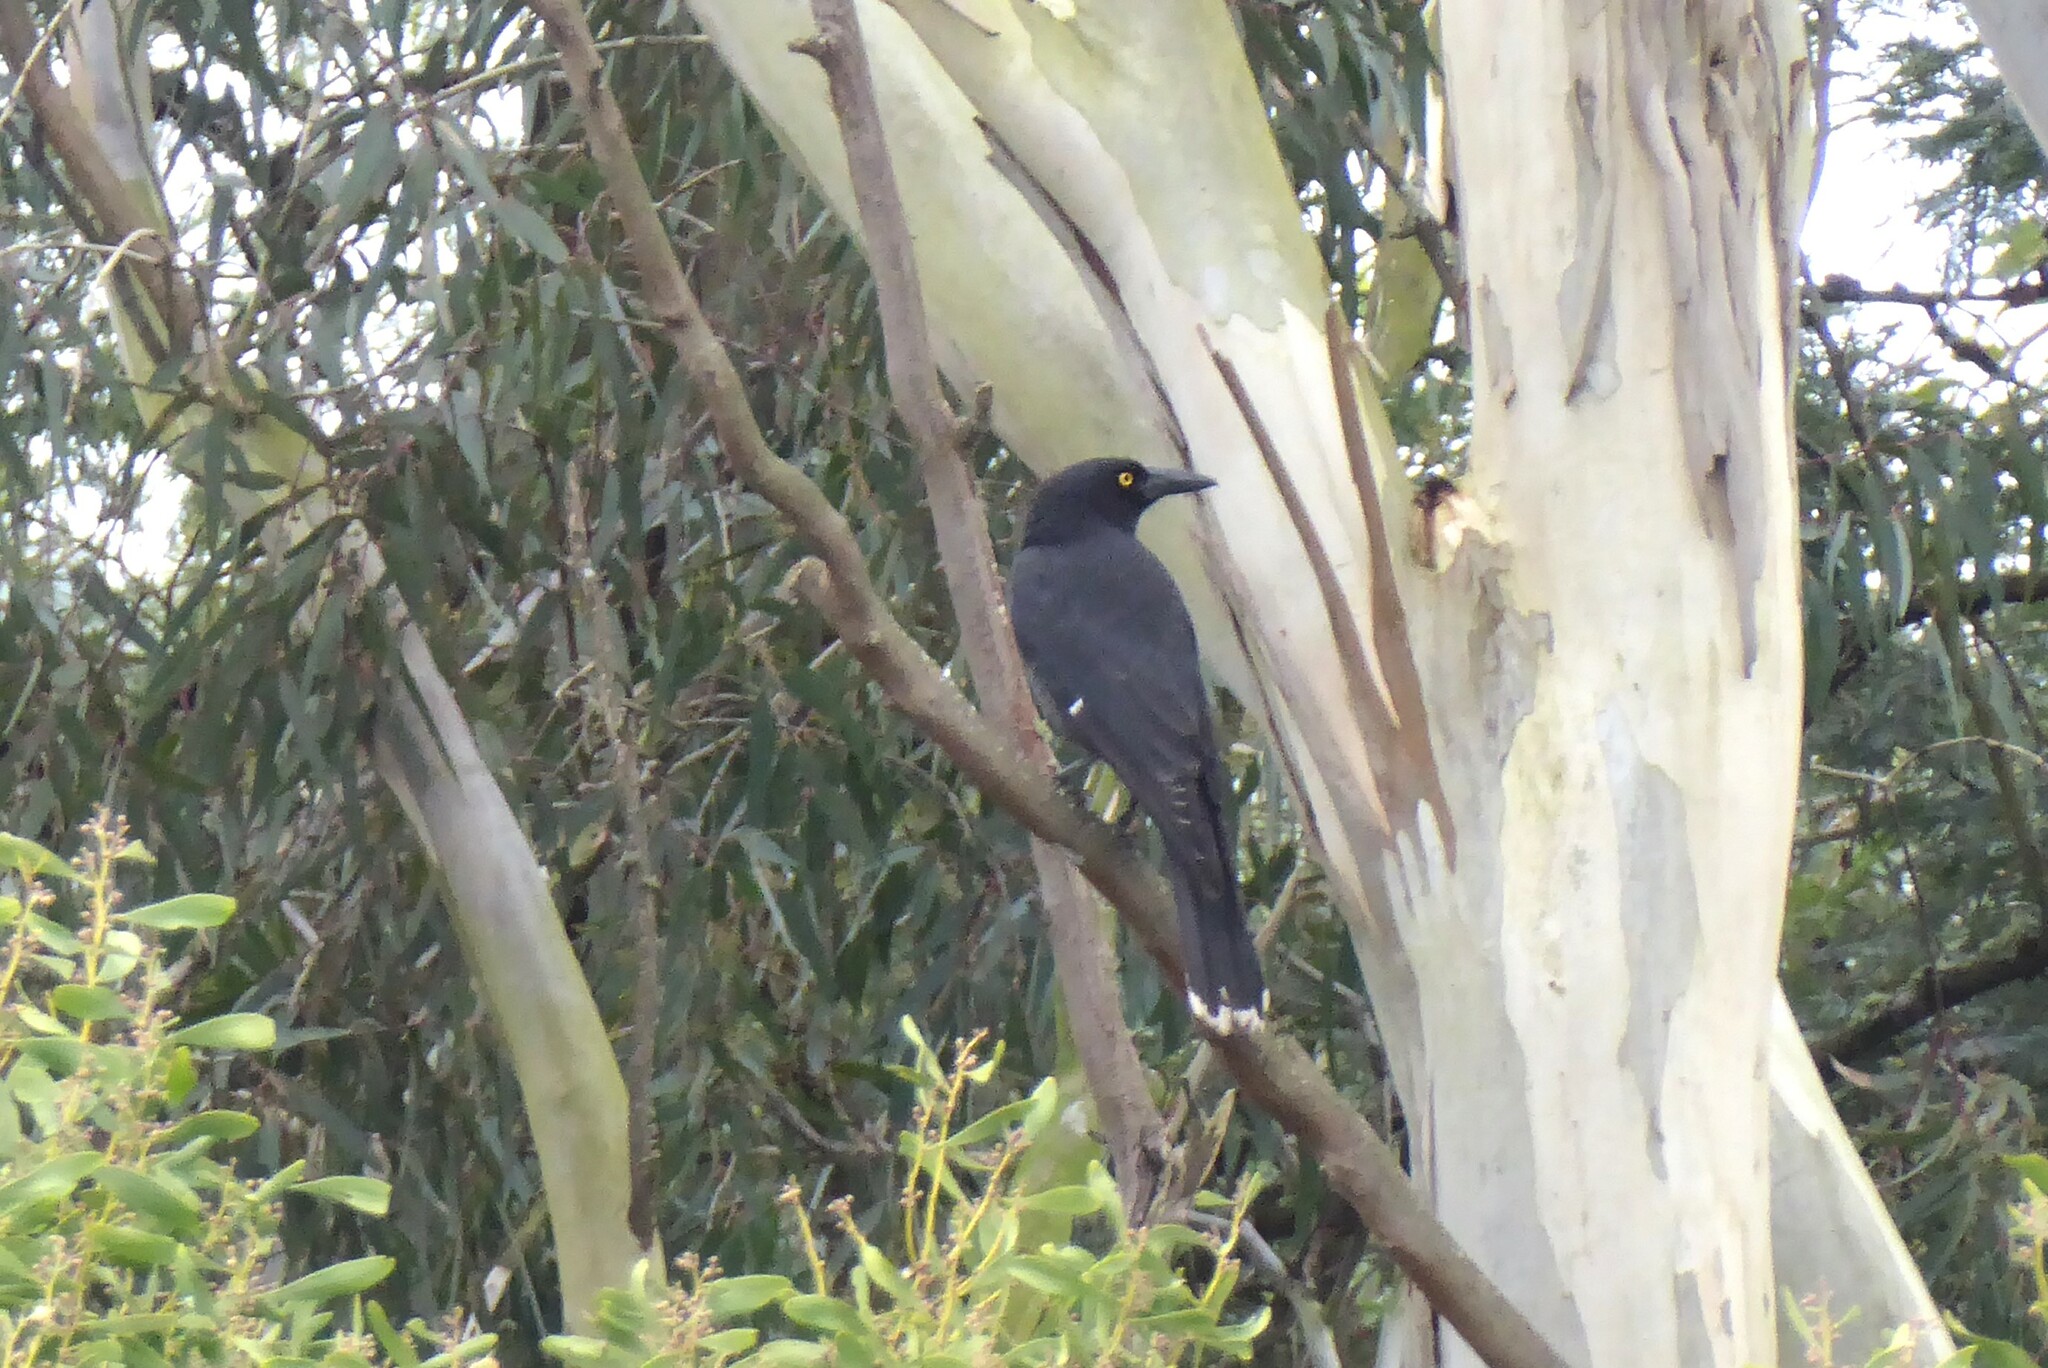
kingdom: Animalia
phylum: Chordata
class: Aves
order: Passeriformes
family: Cracticidae
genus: Strepera
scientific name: Strepera graculina
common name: Pied currawong
